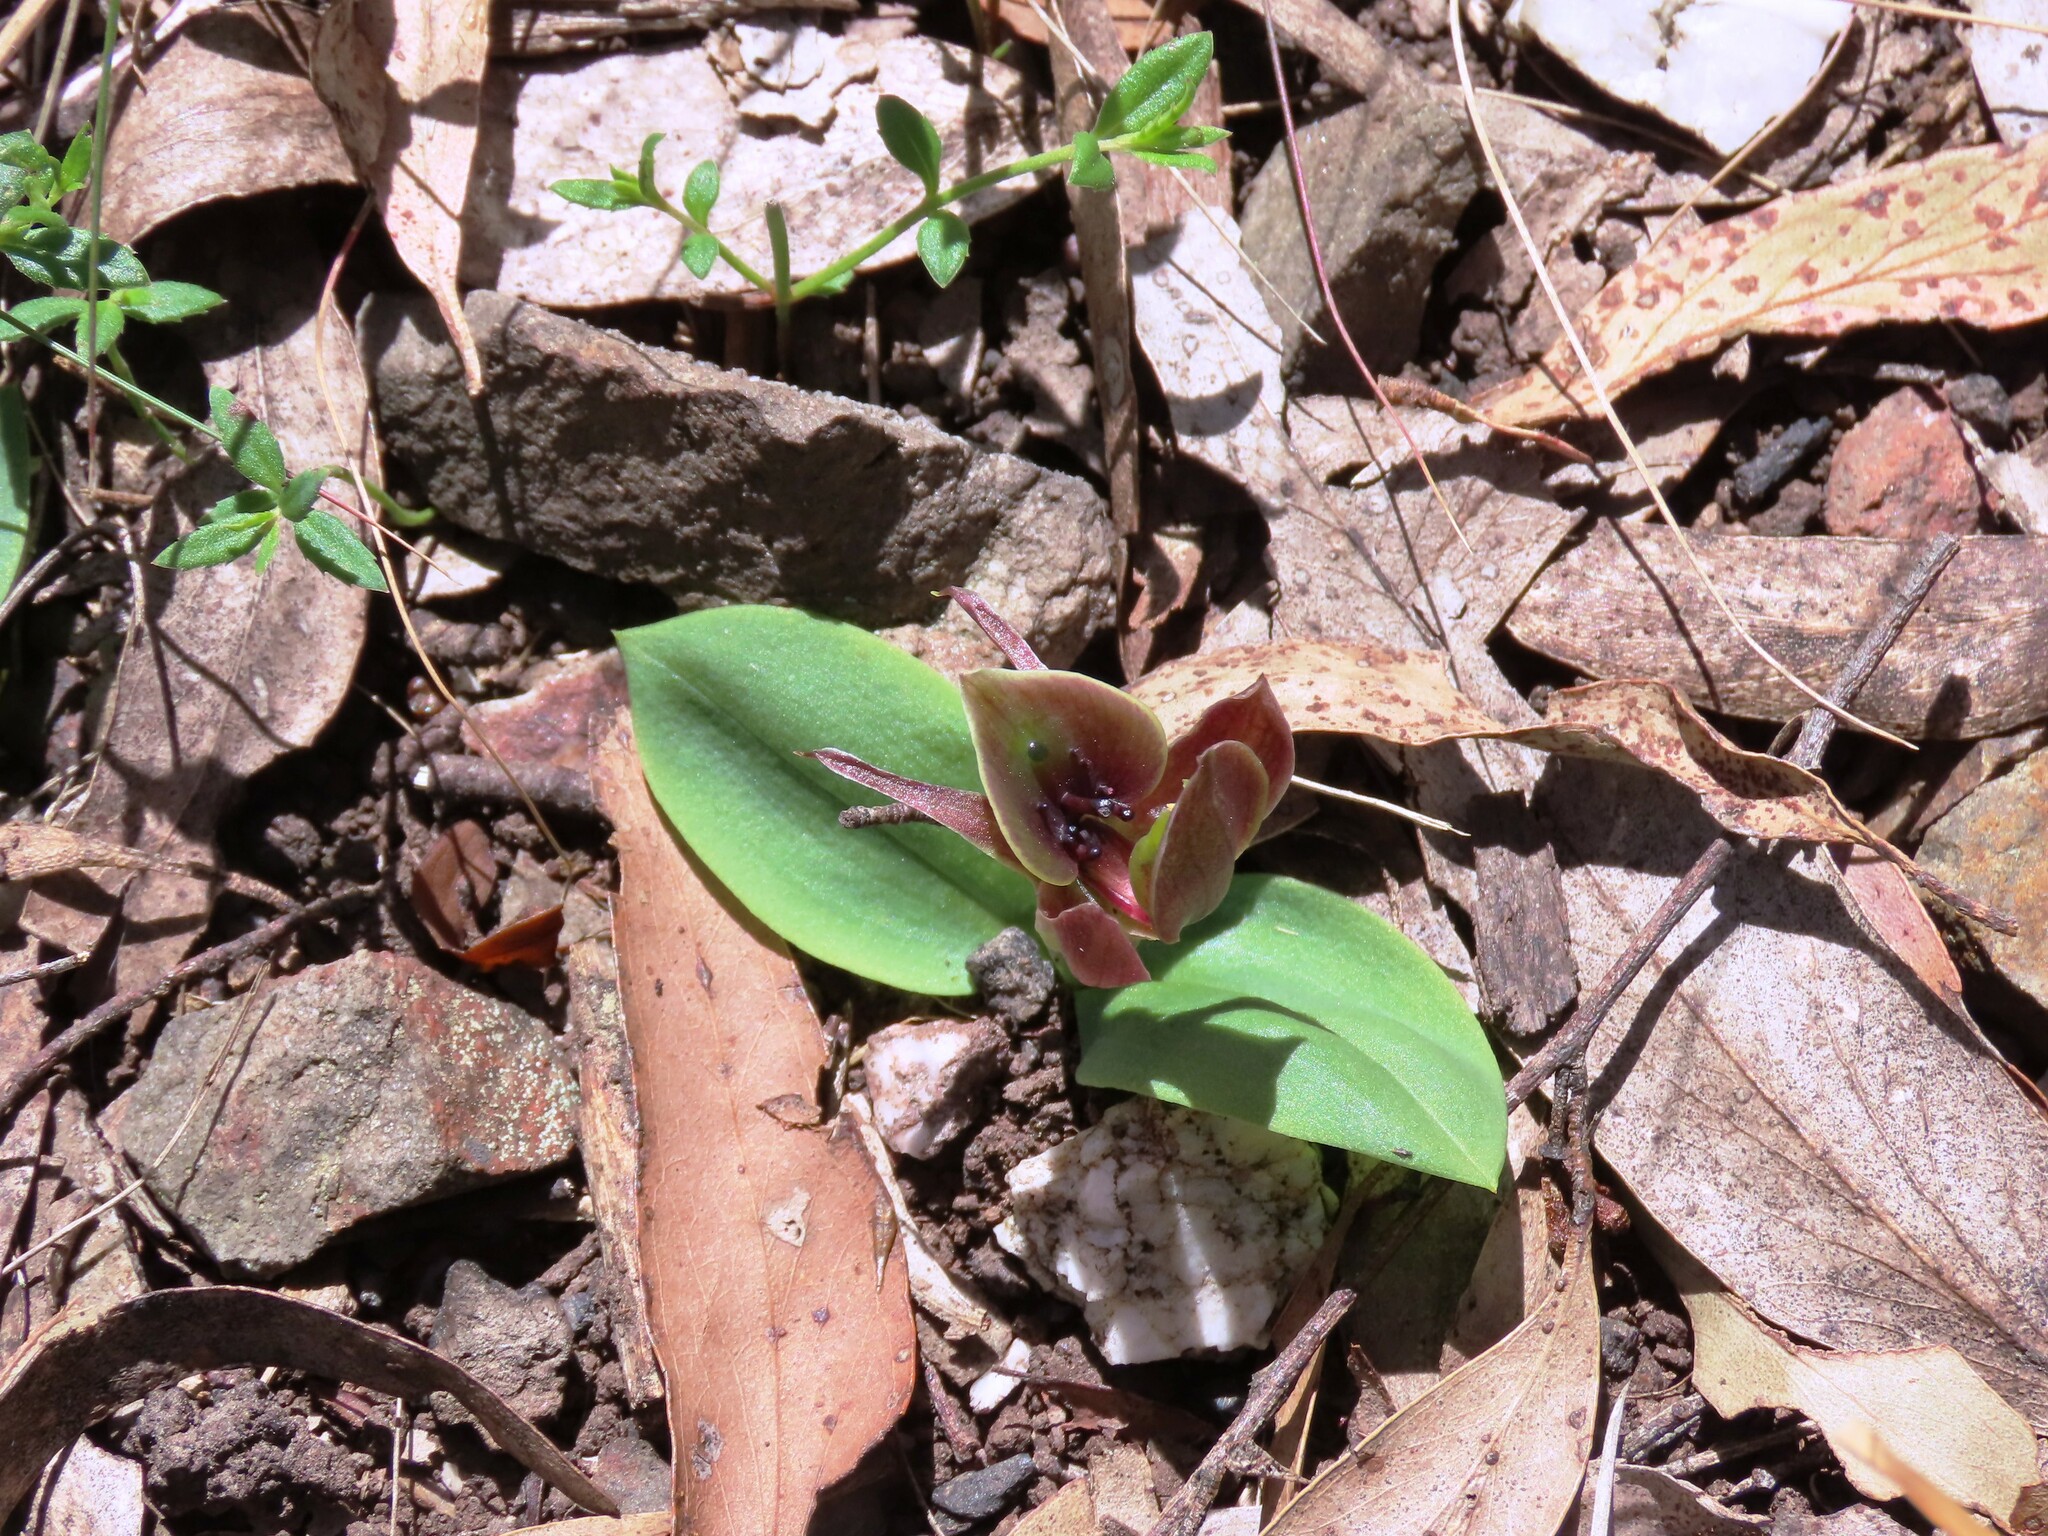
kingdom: Plantae
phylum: Tracheophyta
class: Liliopsida
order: Asparagales
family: Orchidaceae
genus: Chiloglottis
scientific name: Chiloglottis valida
